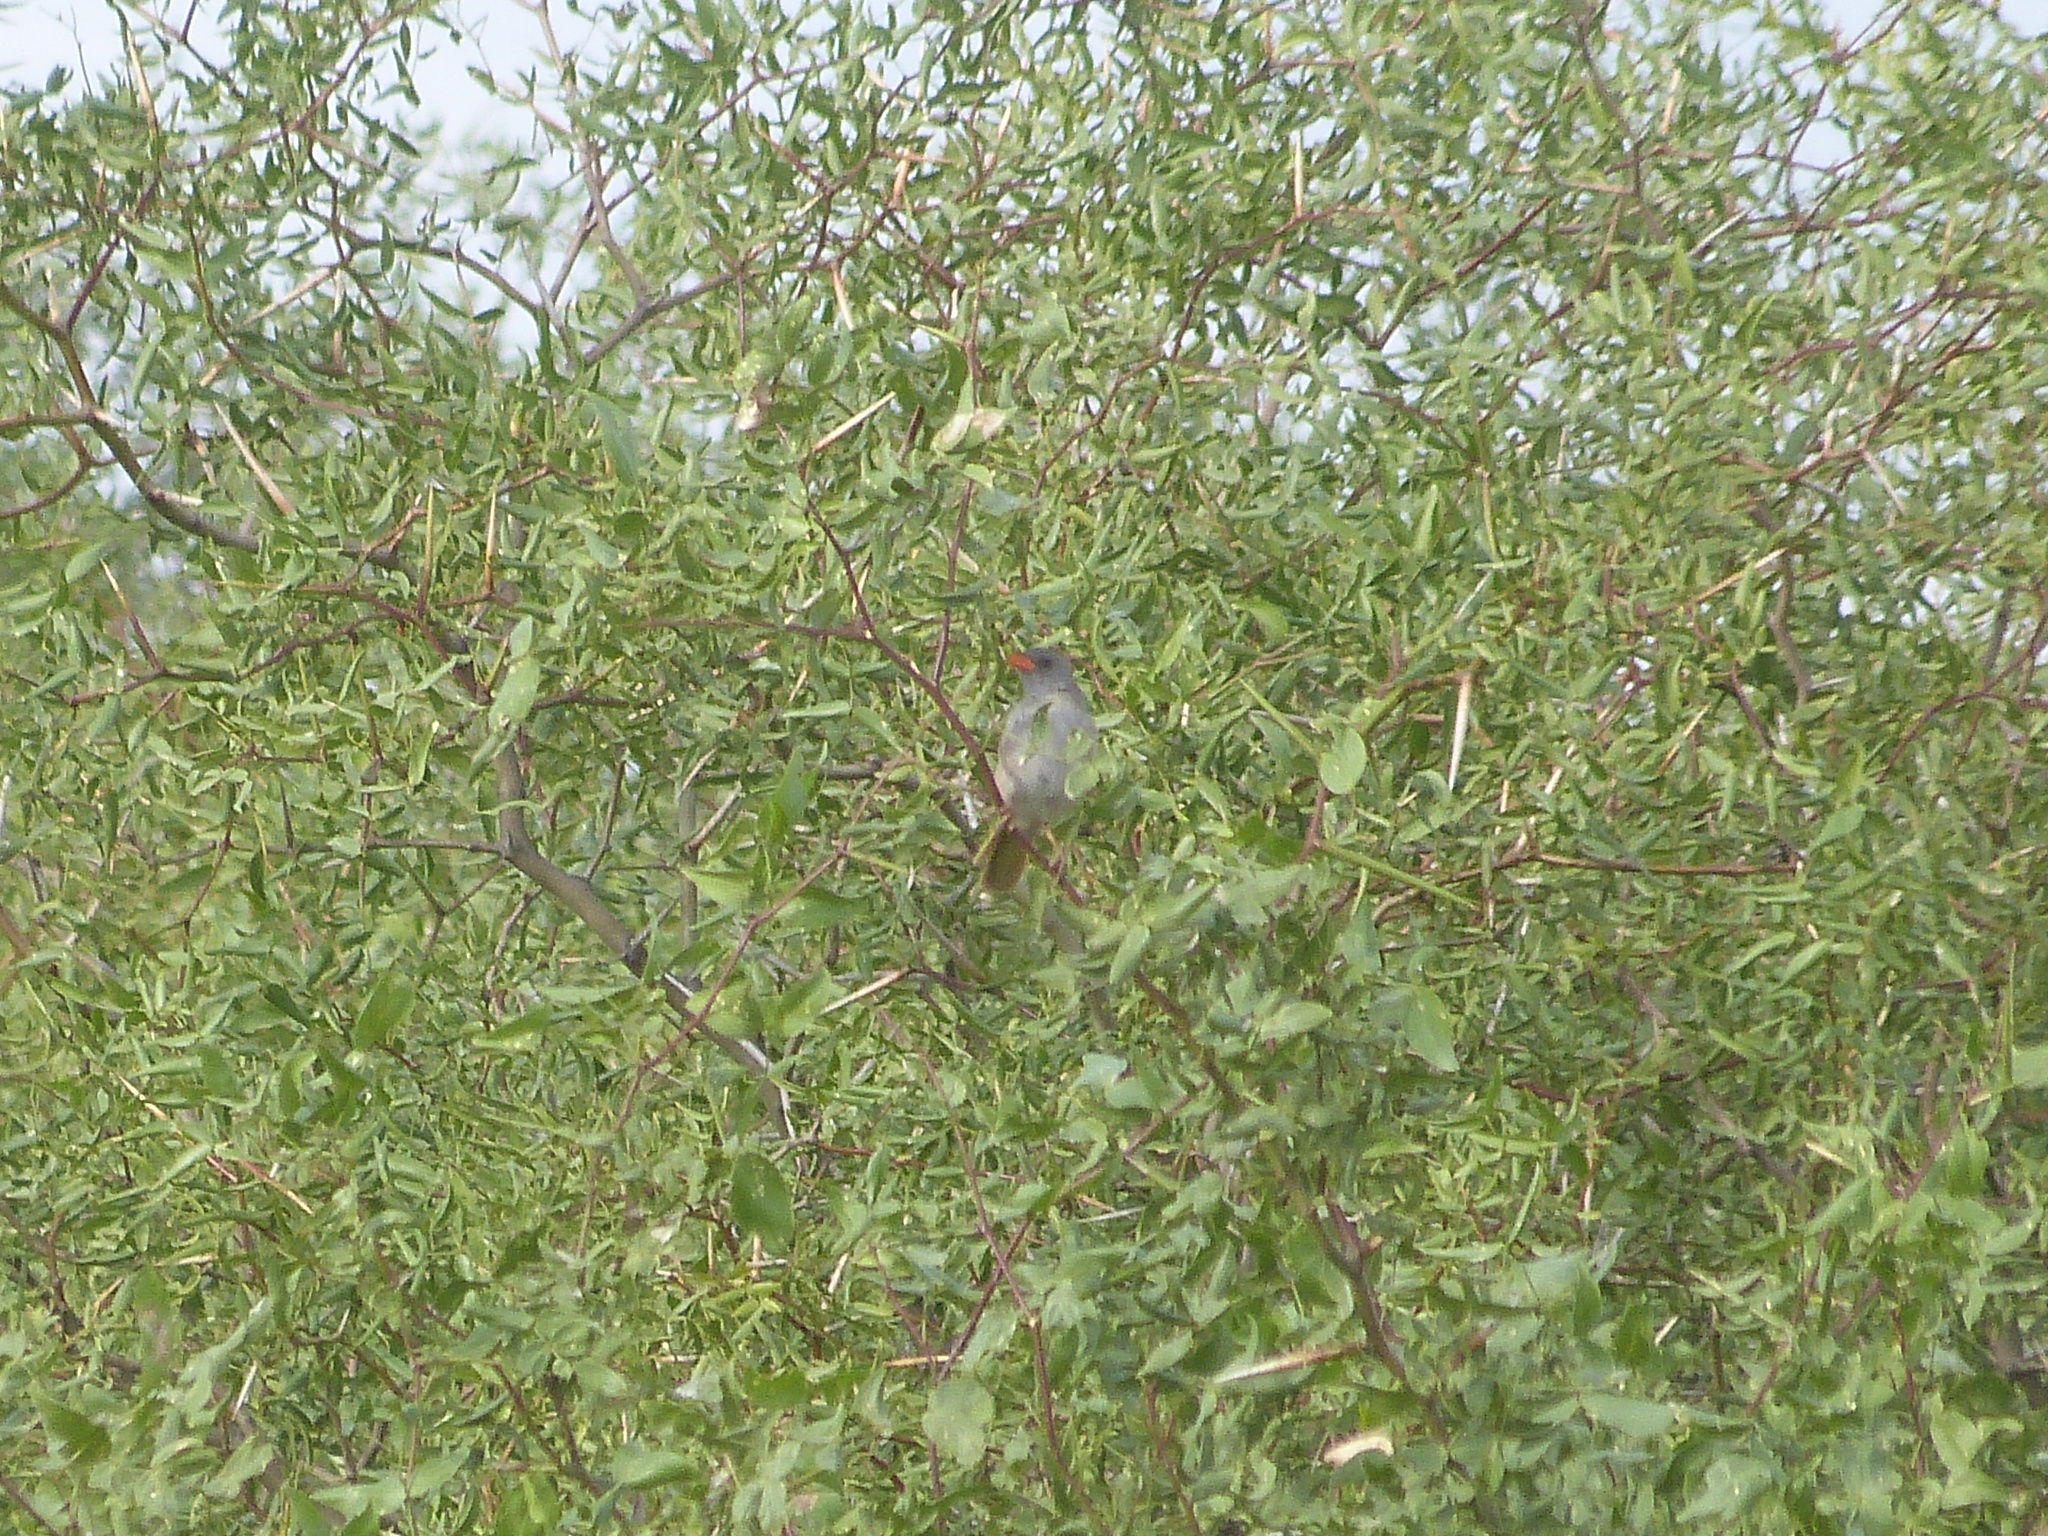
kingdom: Animalia
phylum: Chordata
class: Aves
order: Passeriformes
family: Thraupidae
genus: Embernagra
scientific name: Embernagra platensis
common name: Pampa finch
